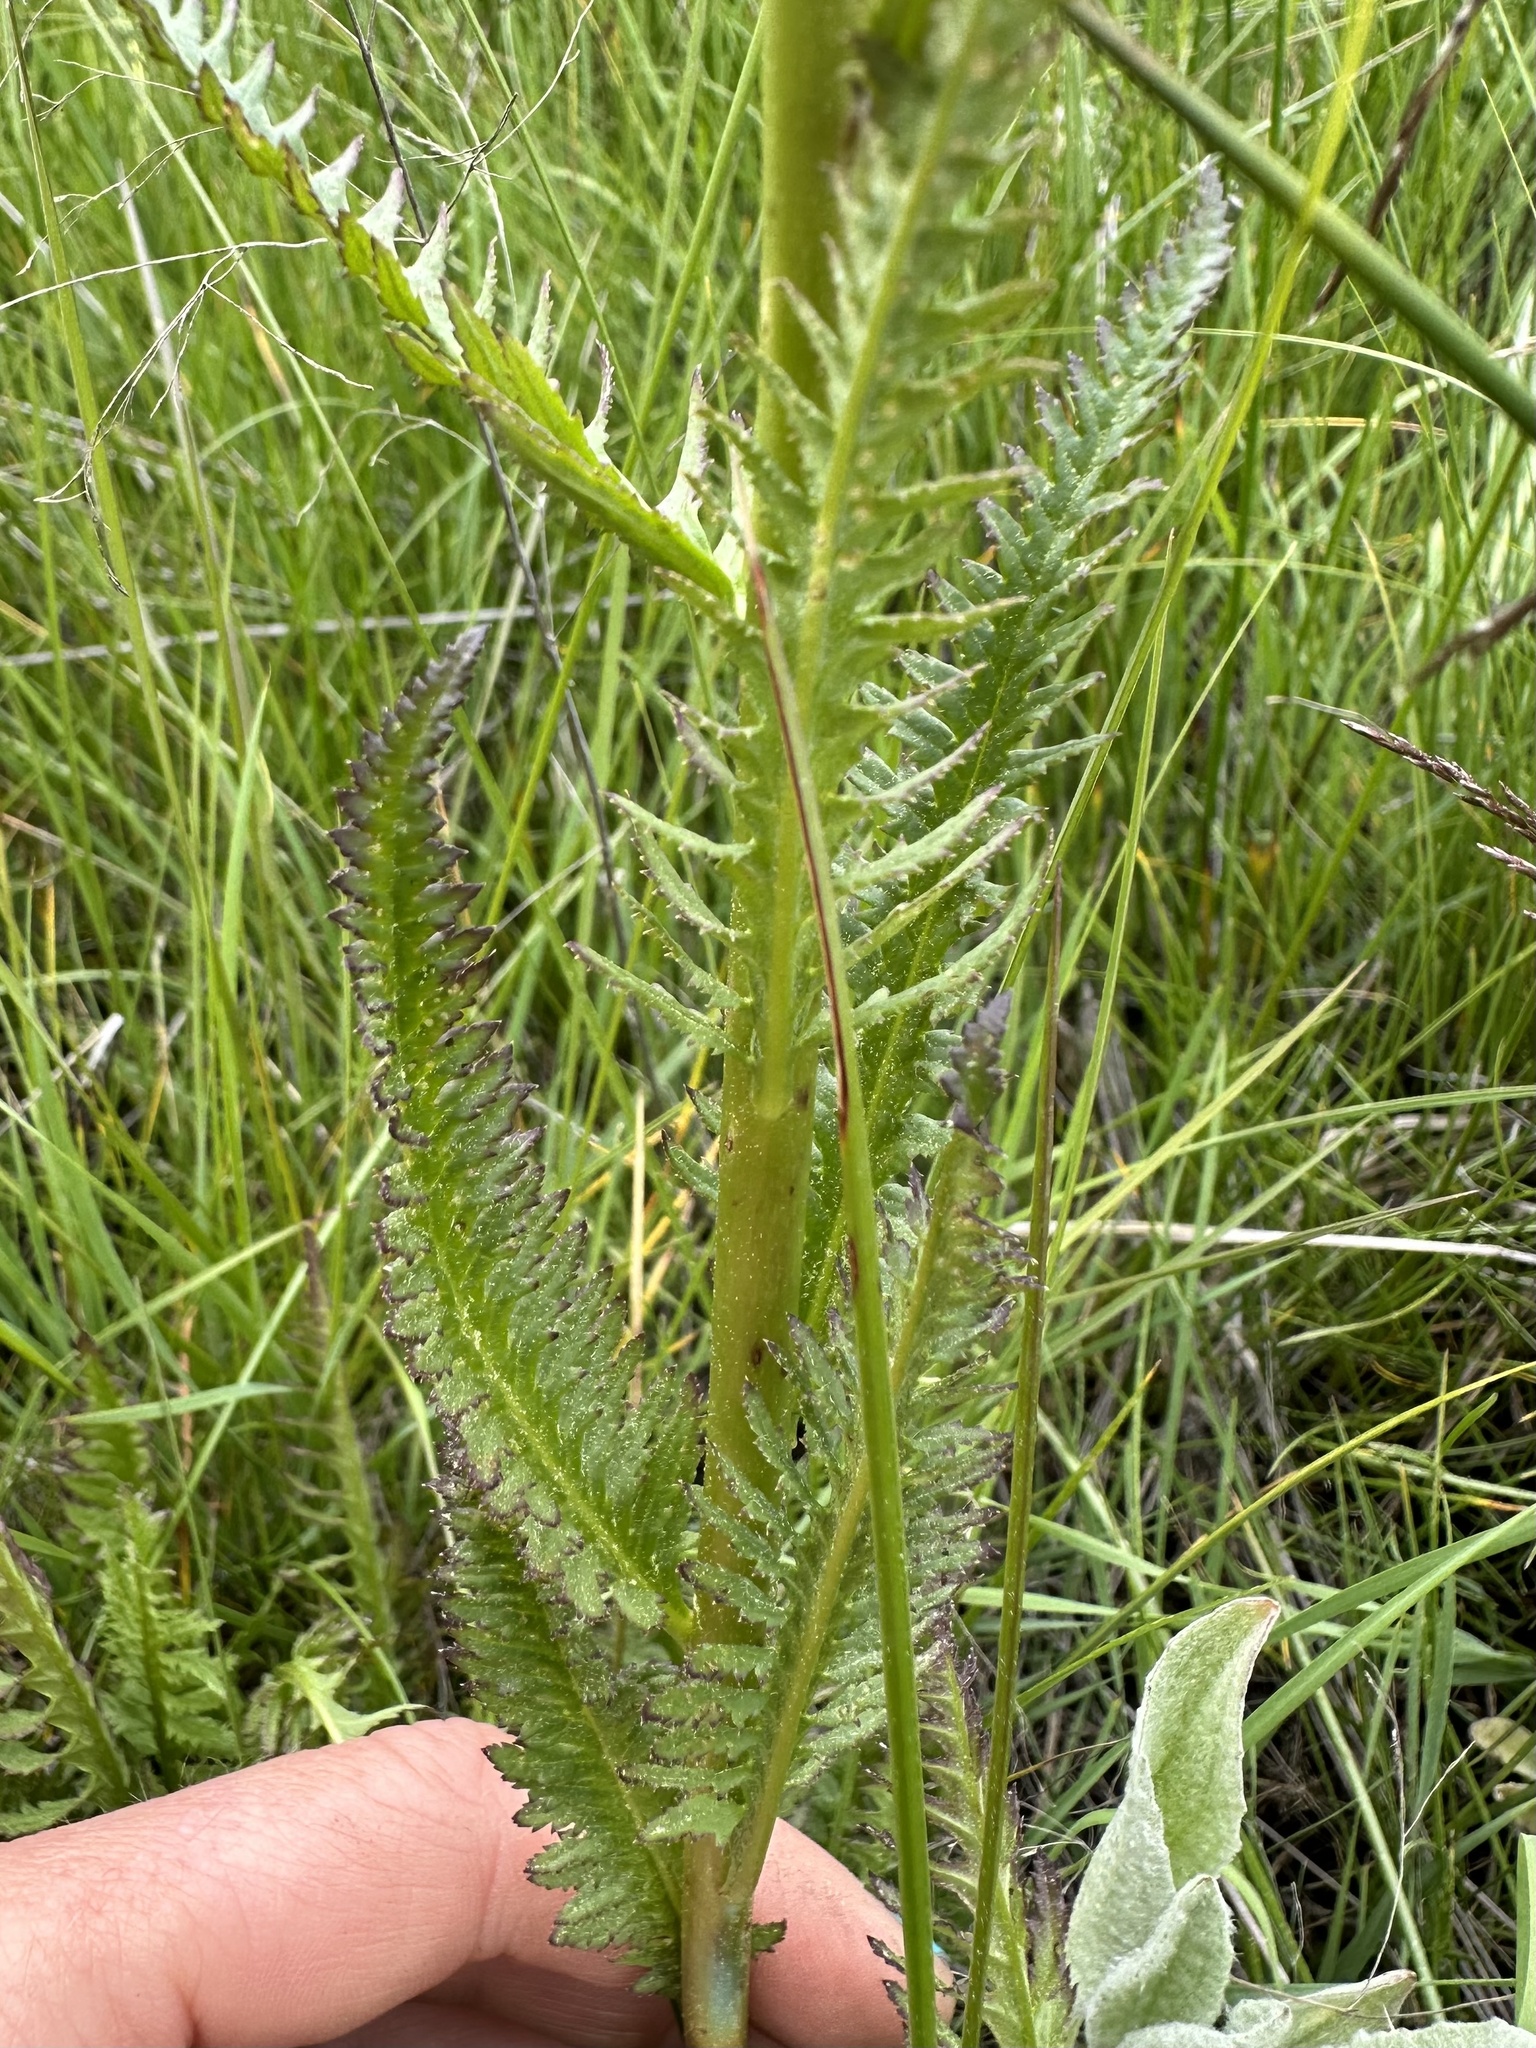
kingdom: Plantae
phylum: Tracheophyta
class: Magnoliopsida
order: Lamiales
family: Orobanchaceae
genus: Pedicularis
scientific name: Pedicularis groenlandica
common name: Elephant's-head
